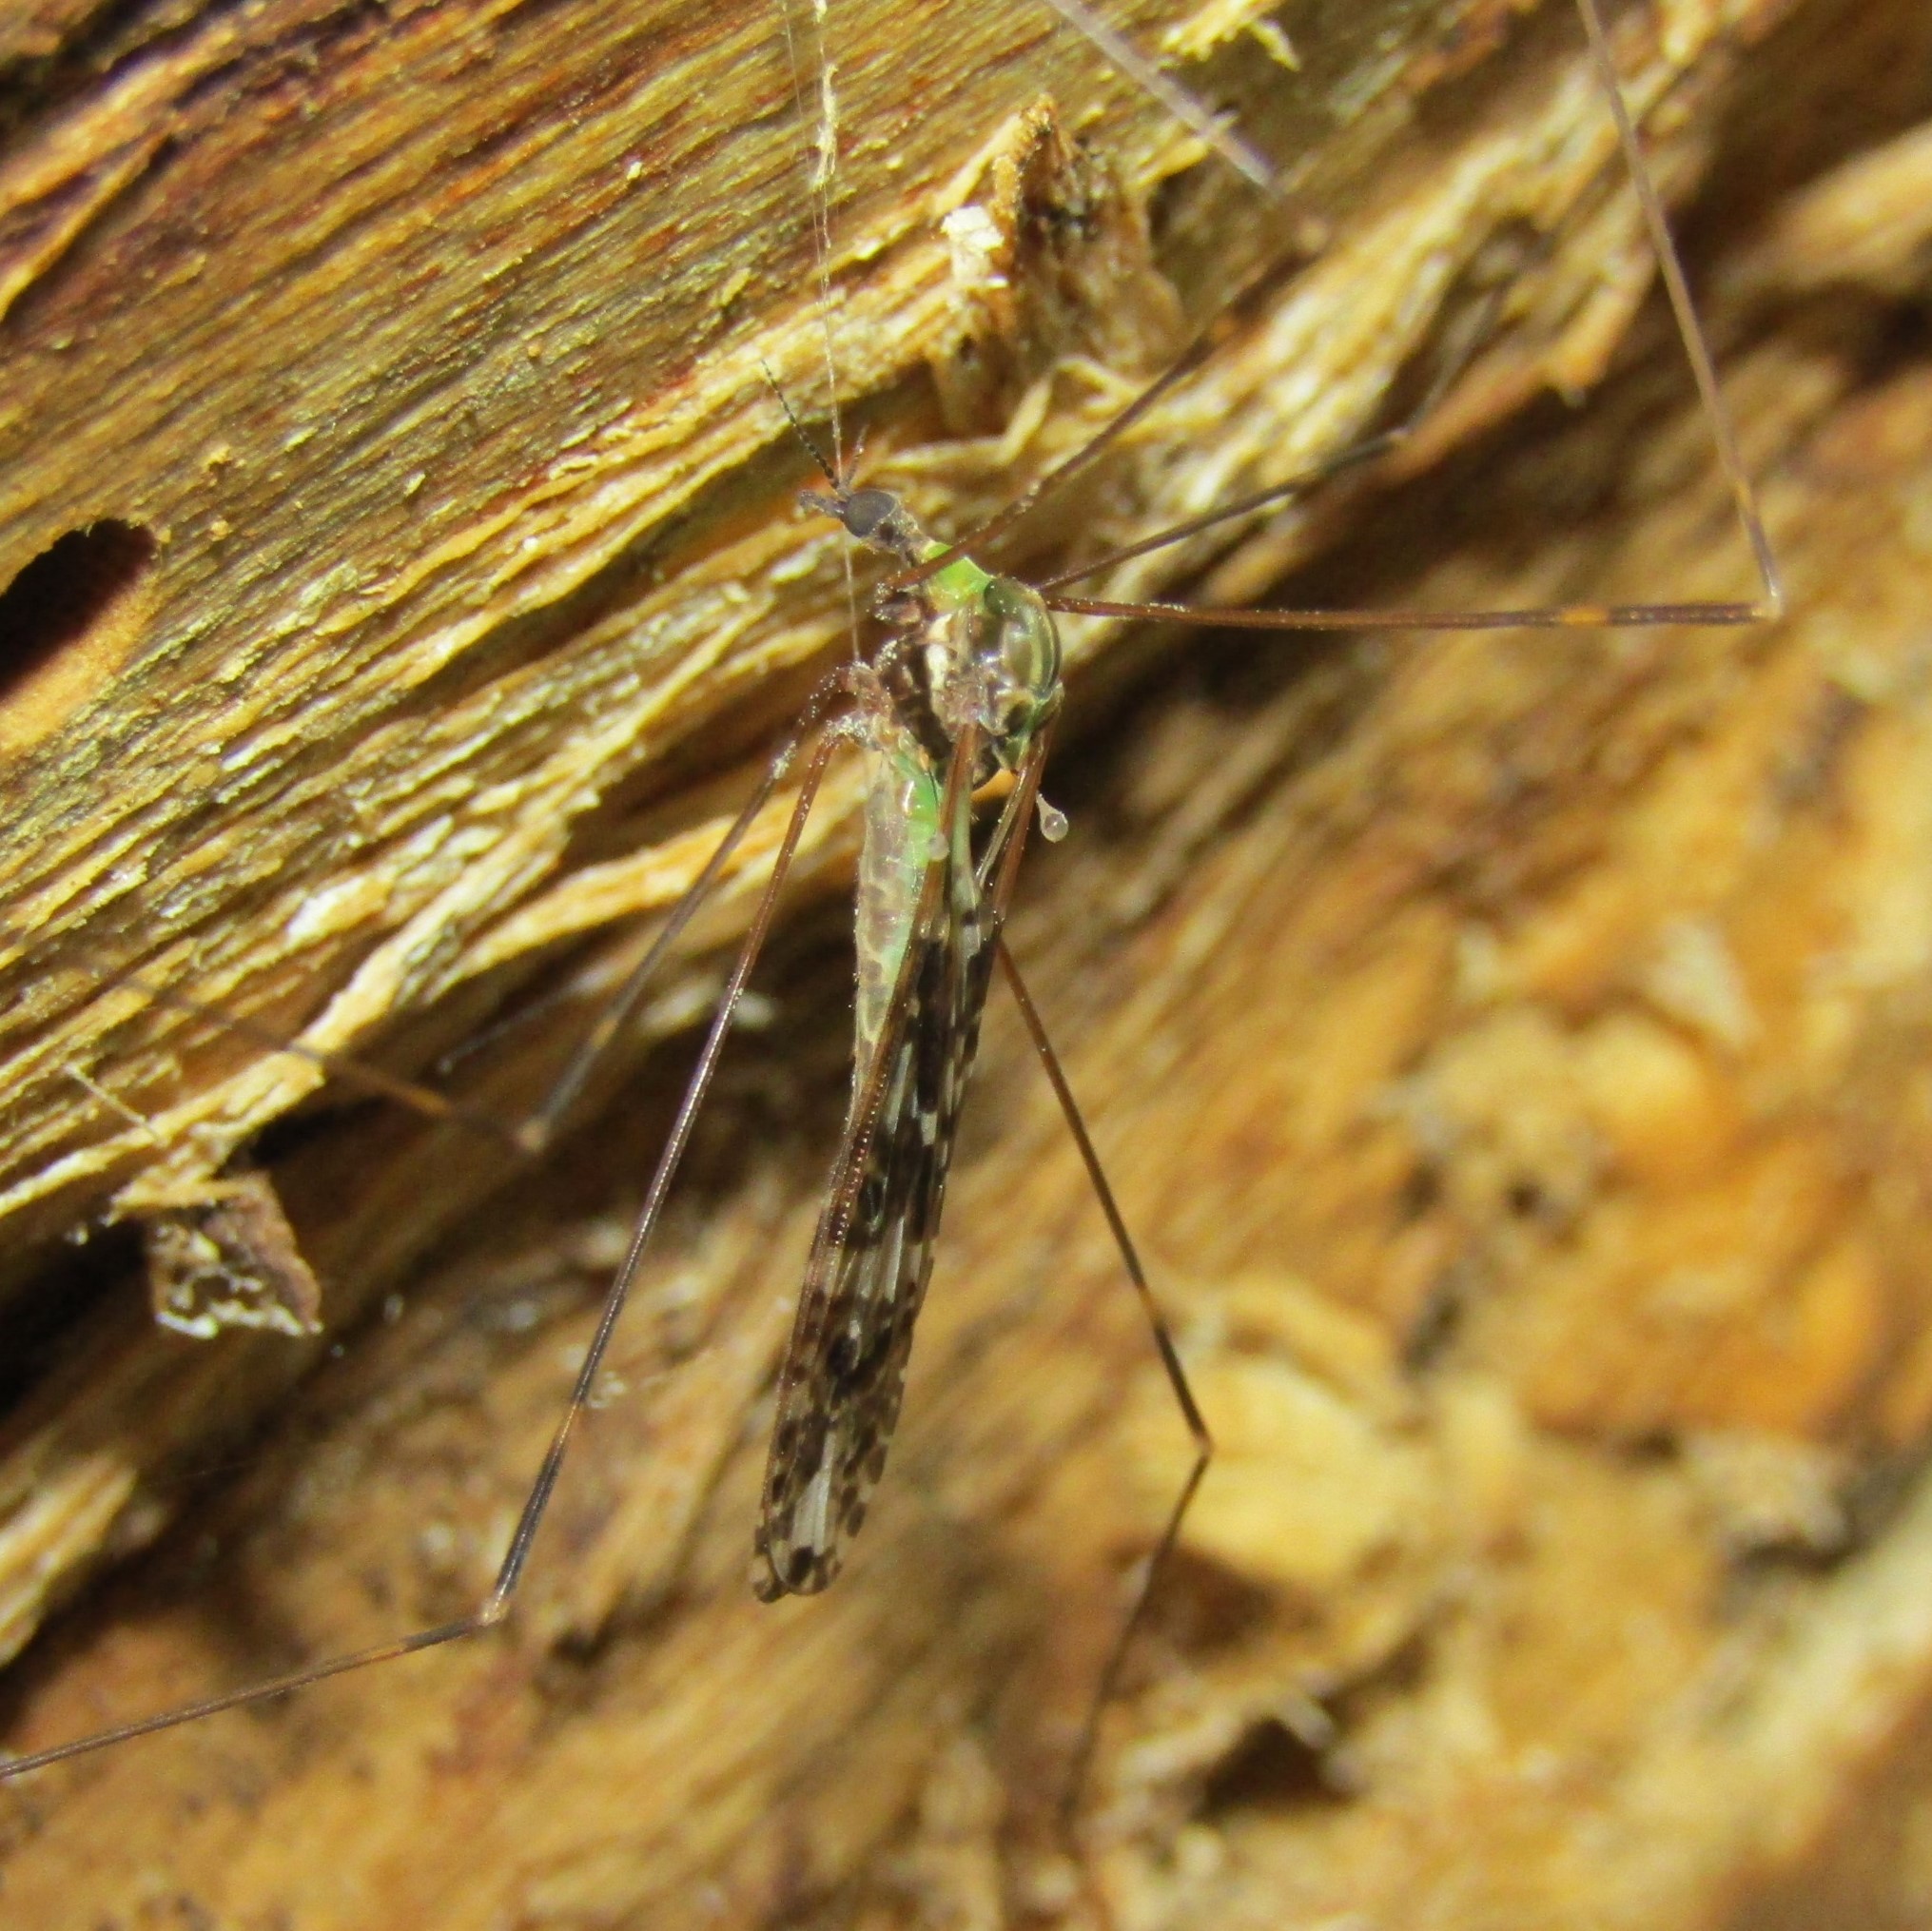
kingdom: Animalia
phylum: Arthropoda
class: Insecta
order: Diptera
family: Limoniidae
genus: Discobola
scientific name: Discobola dohrni
